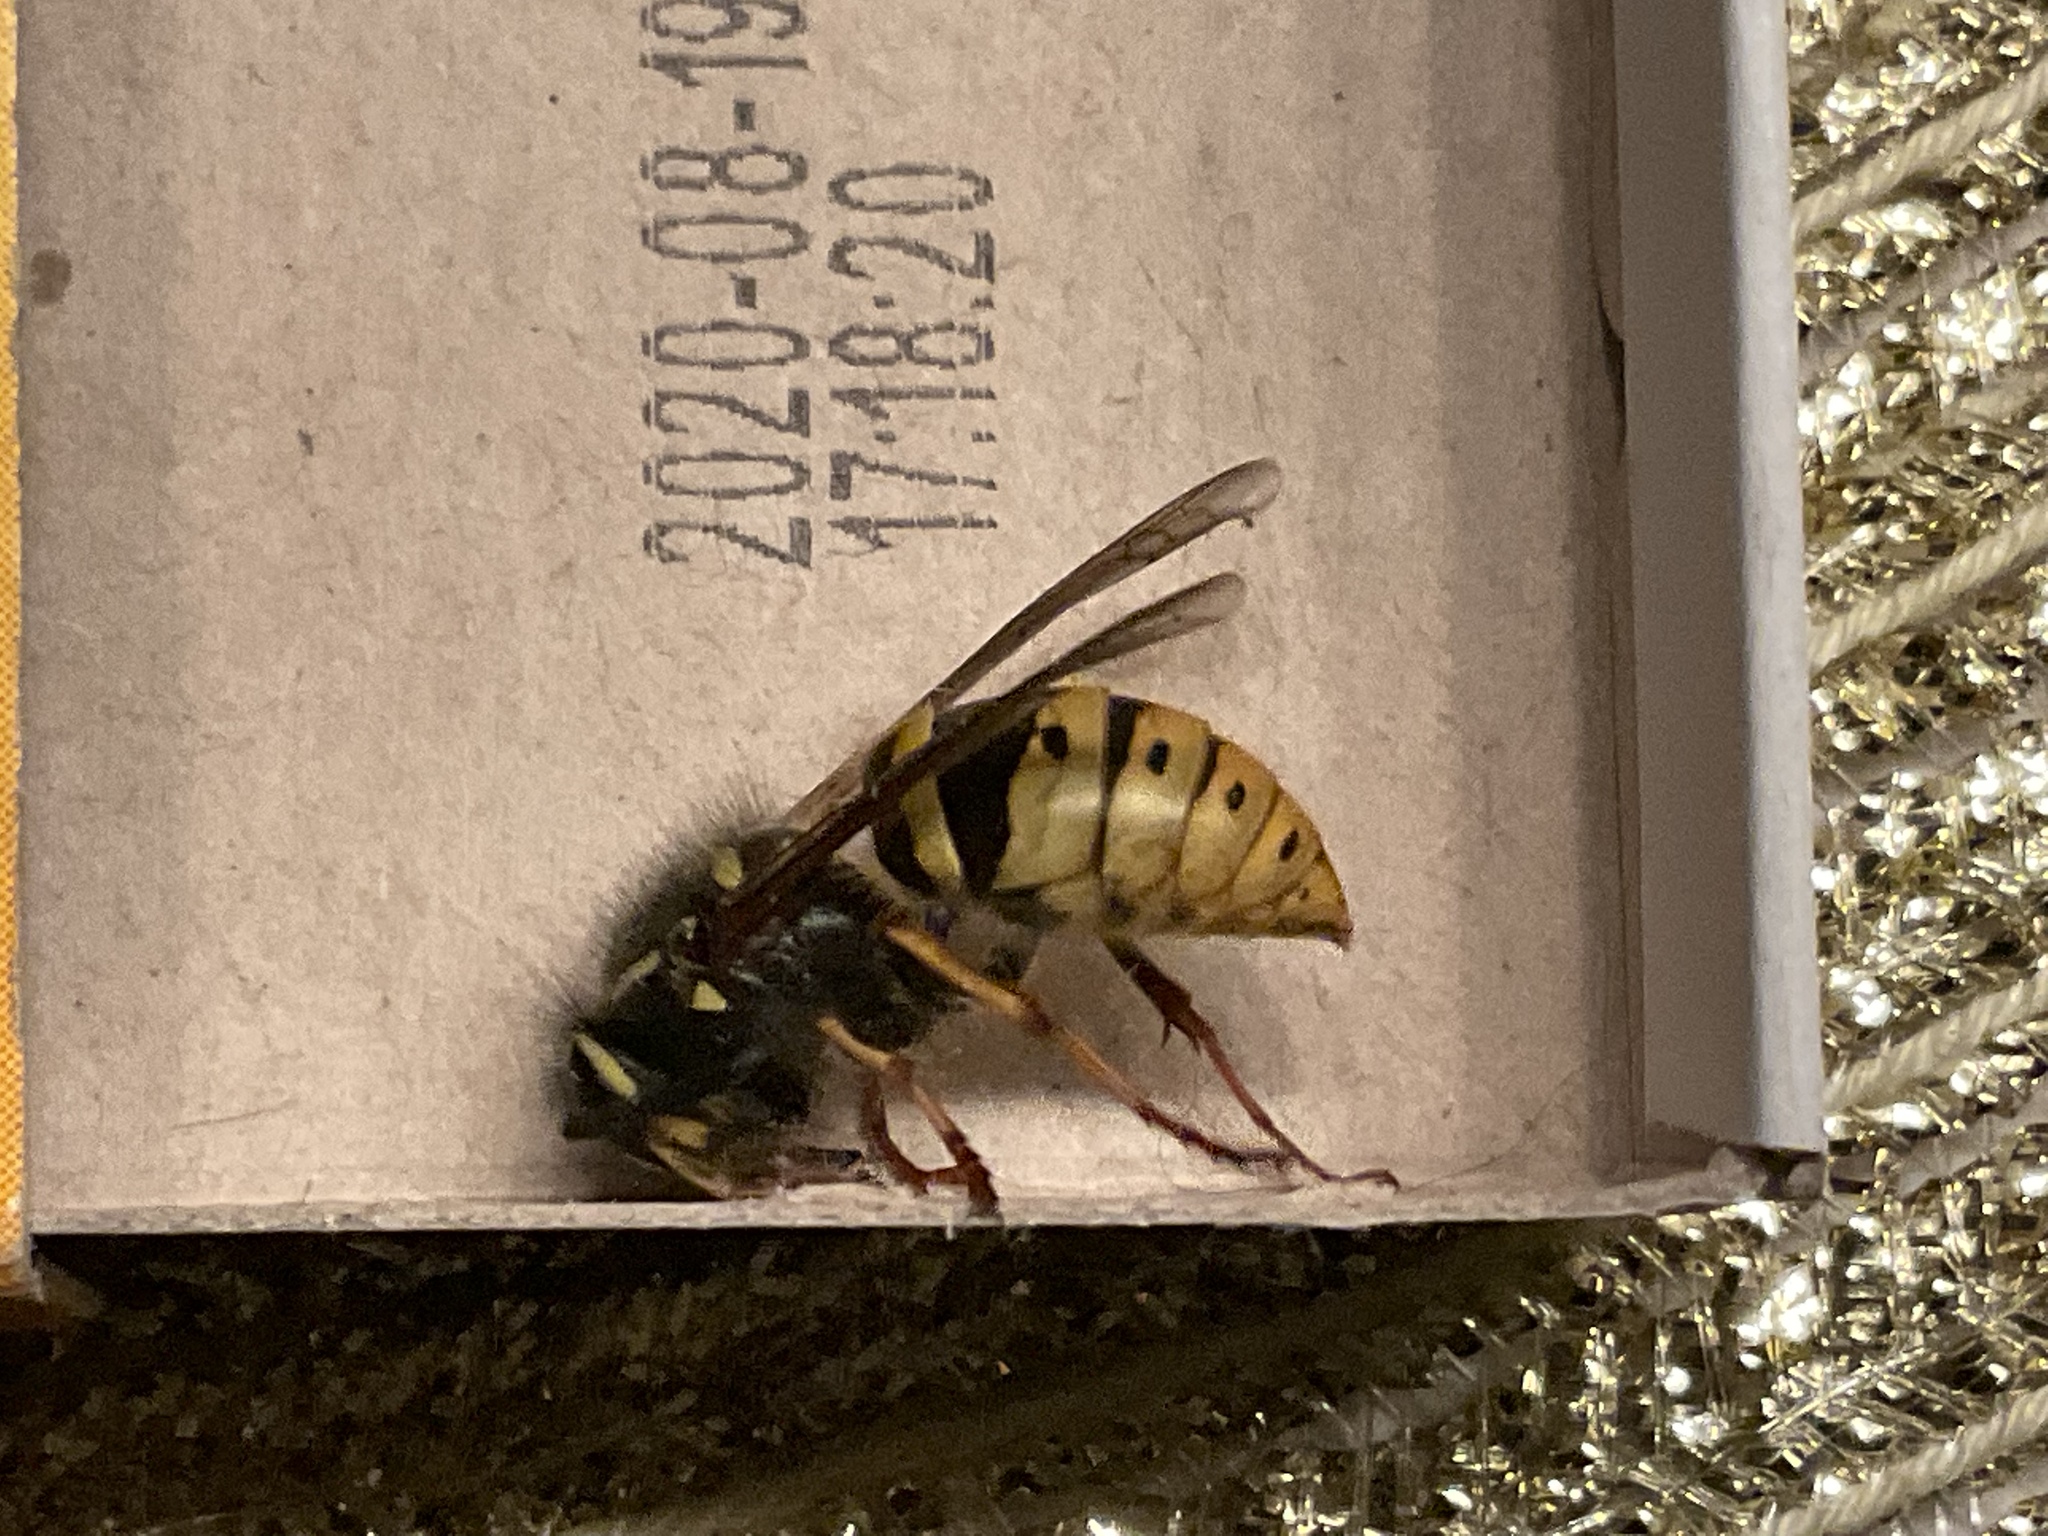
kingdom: Animalia
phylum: Arthropoda
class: Insecta
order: Hymenoptera
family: Vespidae
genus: Vespula
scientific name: Vespula vulgaris
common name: Common wasp
